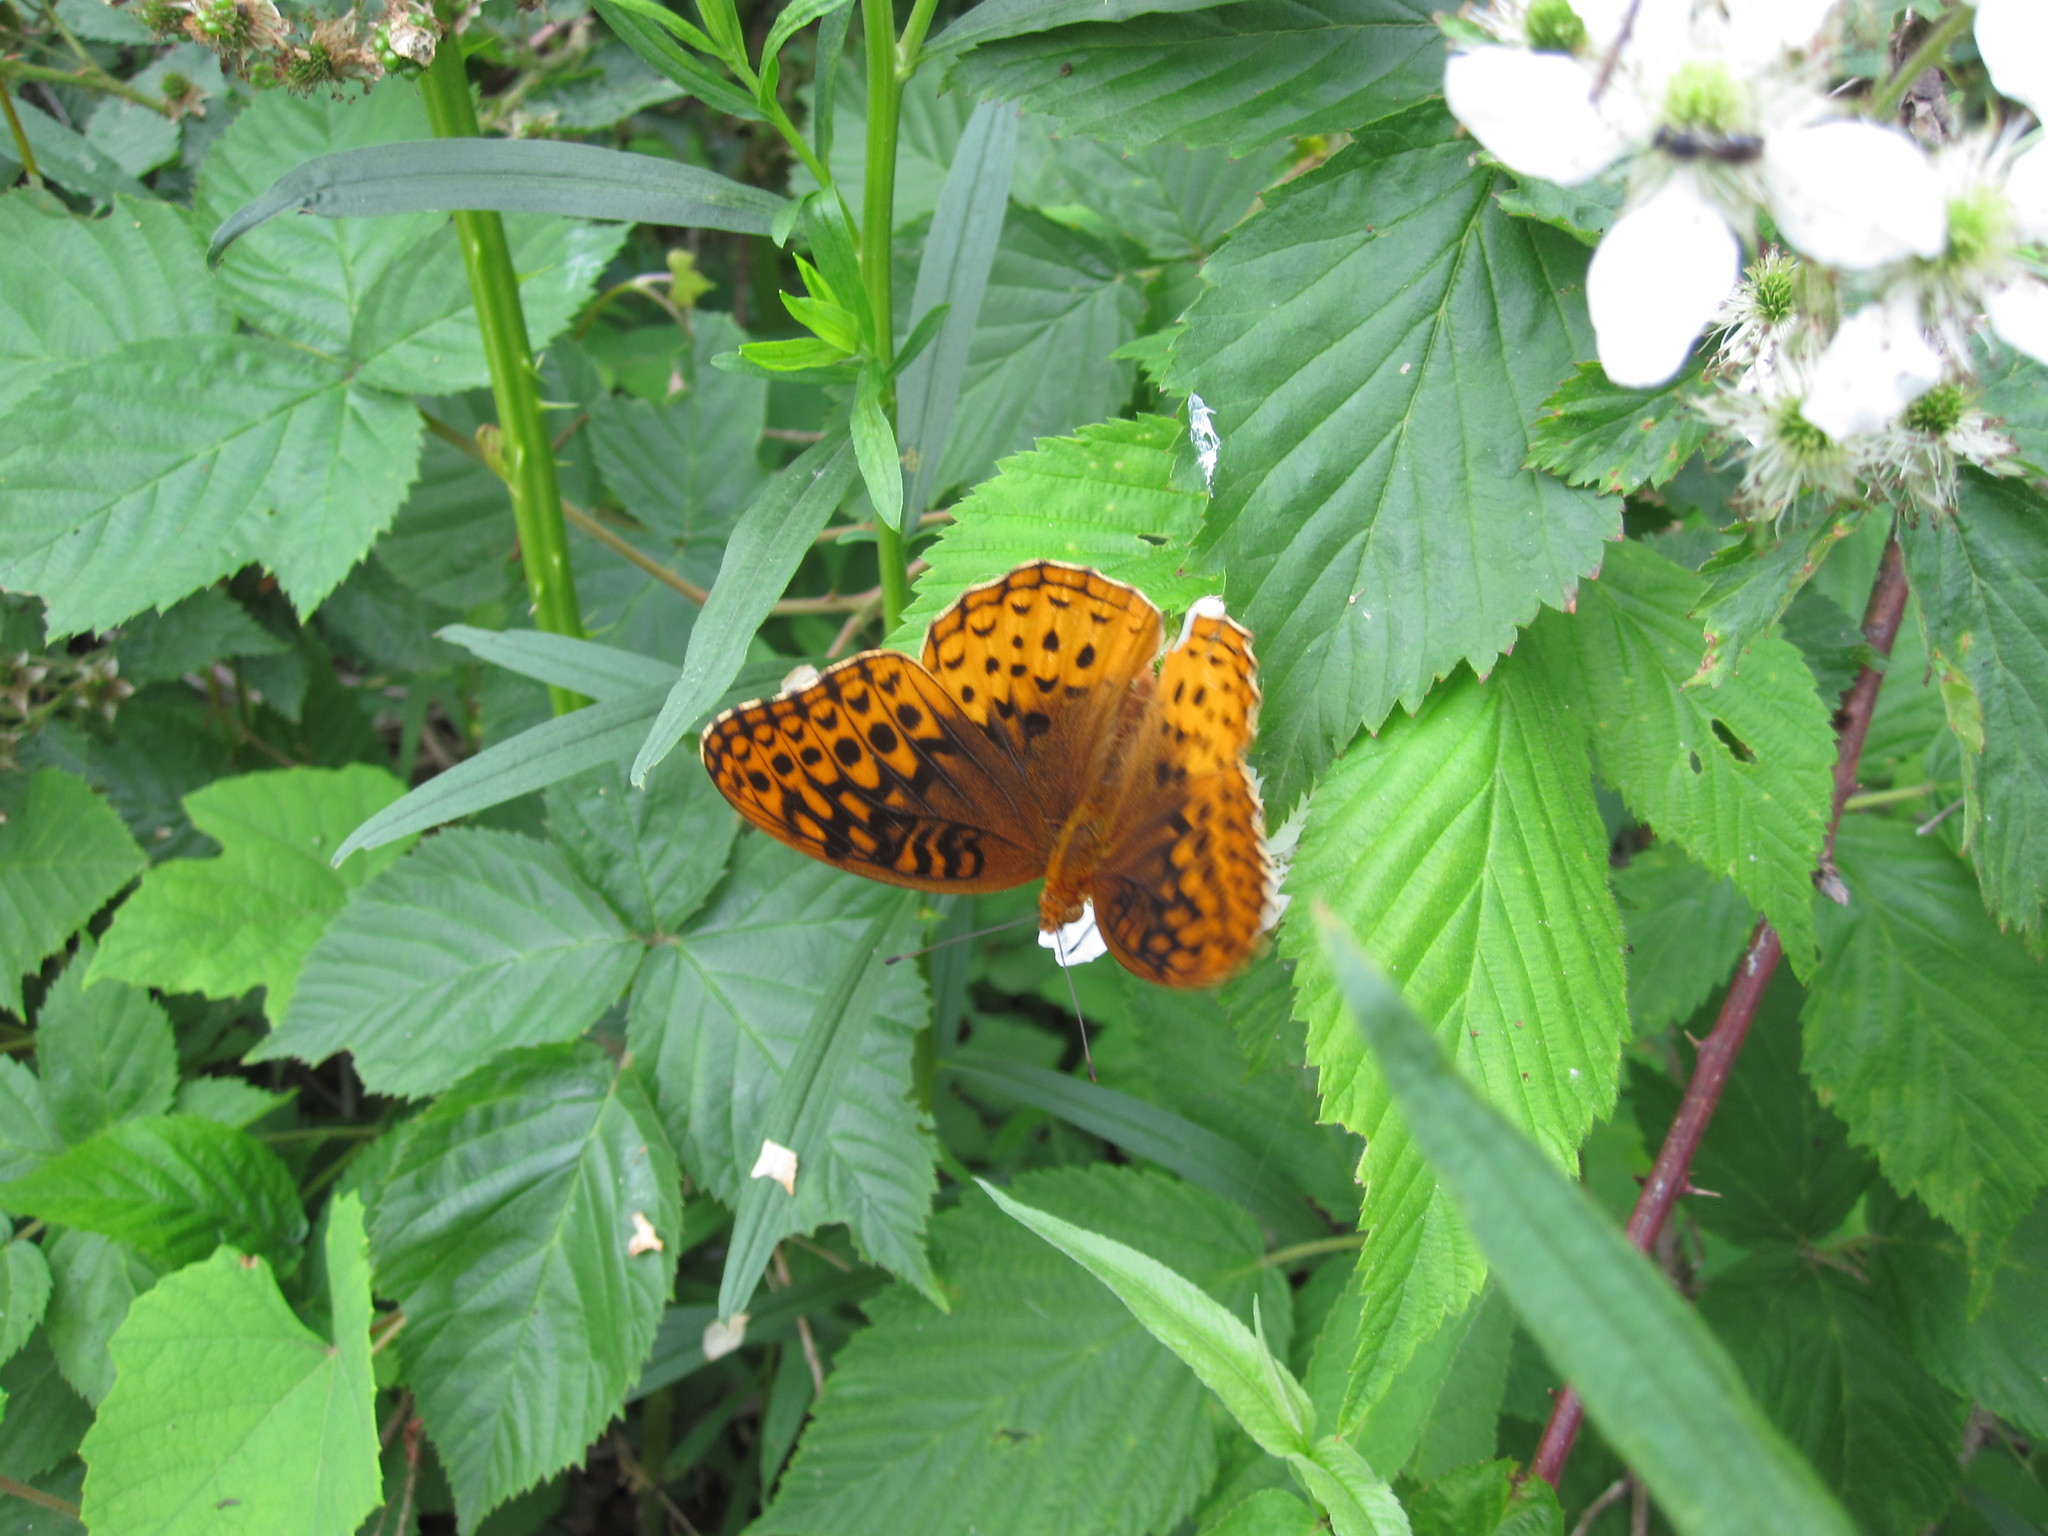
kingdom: Animalia
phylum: Arthropoda
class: Insecta
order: Lepidoptera
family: Nymphalidae
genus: Speyeria
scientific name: Speyeria cybele
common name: Great spangled fritillary
